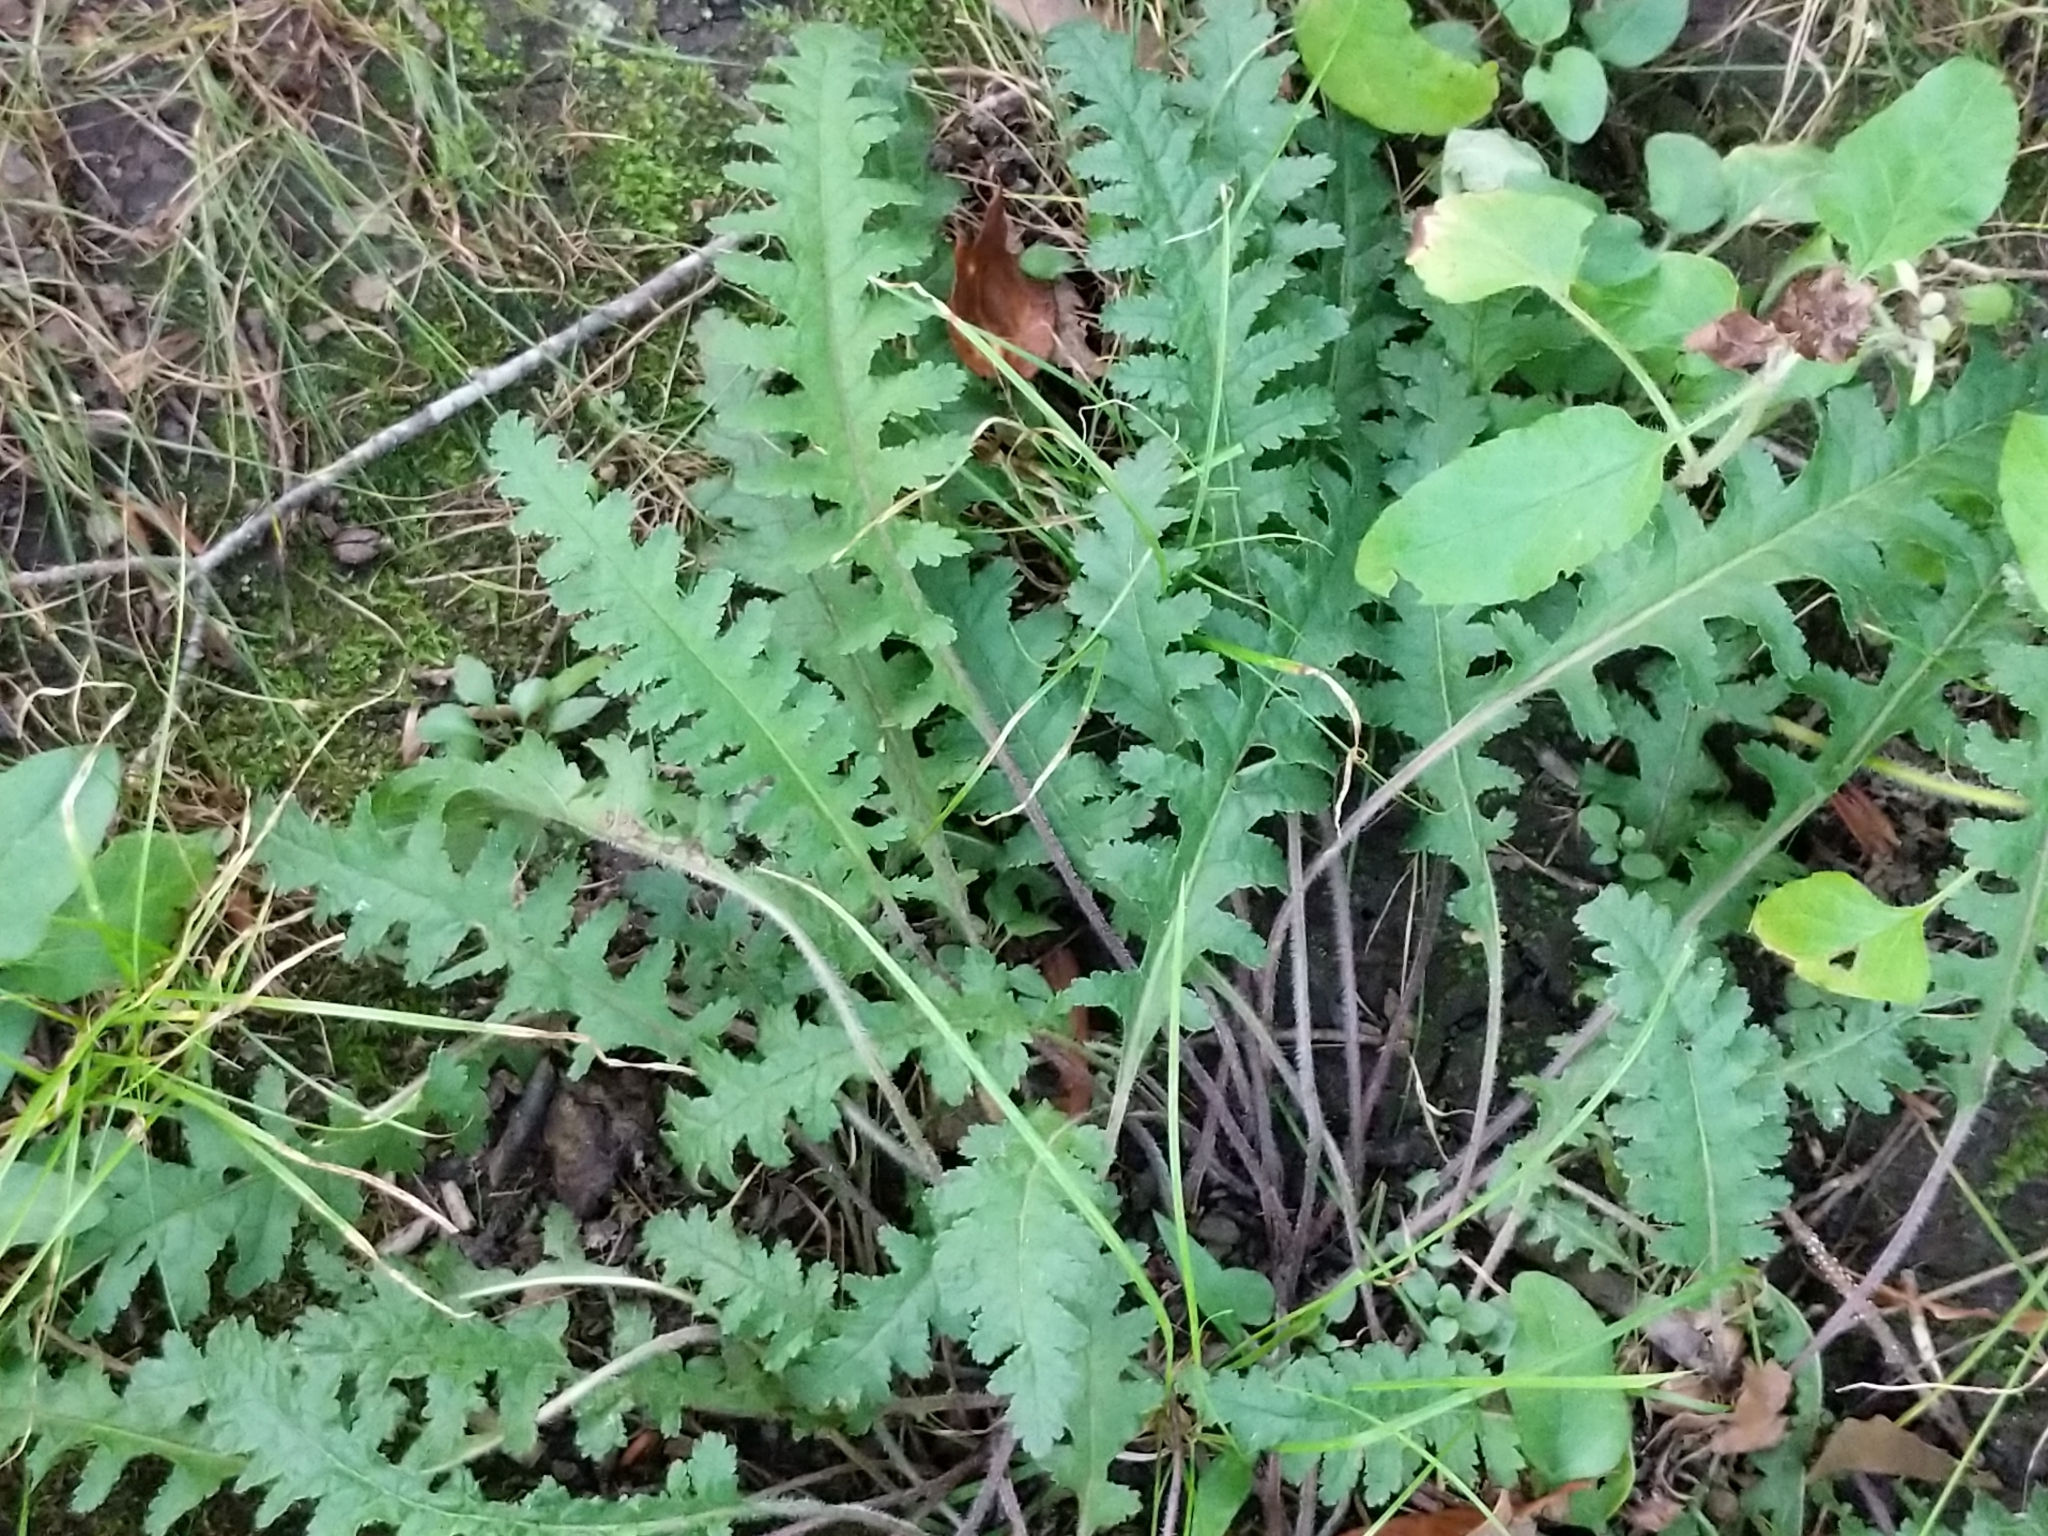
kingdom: Plantae
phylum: Tracheophyta
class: Magnoliopsida
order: Lamiales
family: Orobanchaceae
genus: Pedicularis
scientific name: Pedicularis canadensis
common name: Early lousewort
